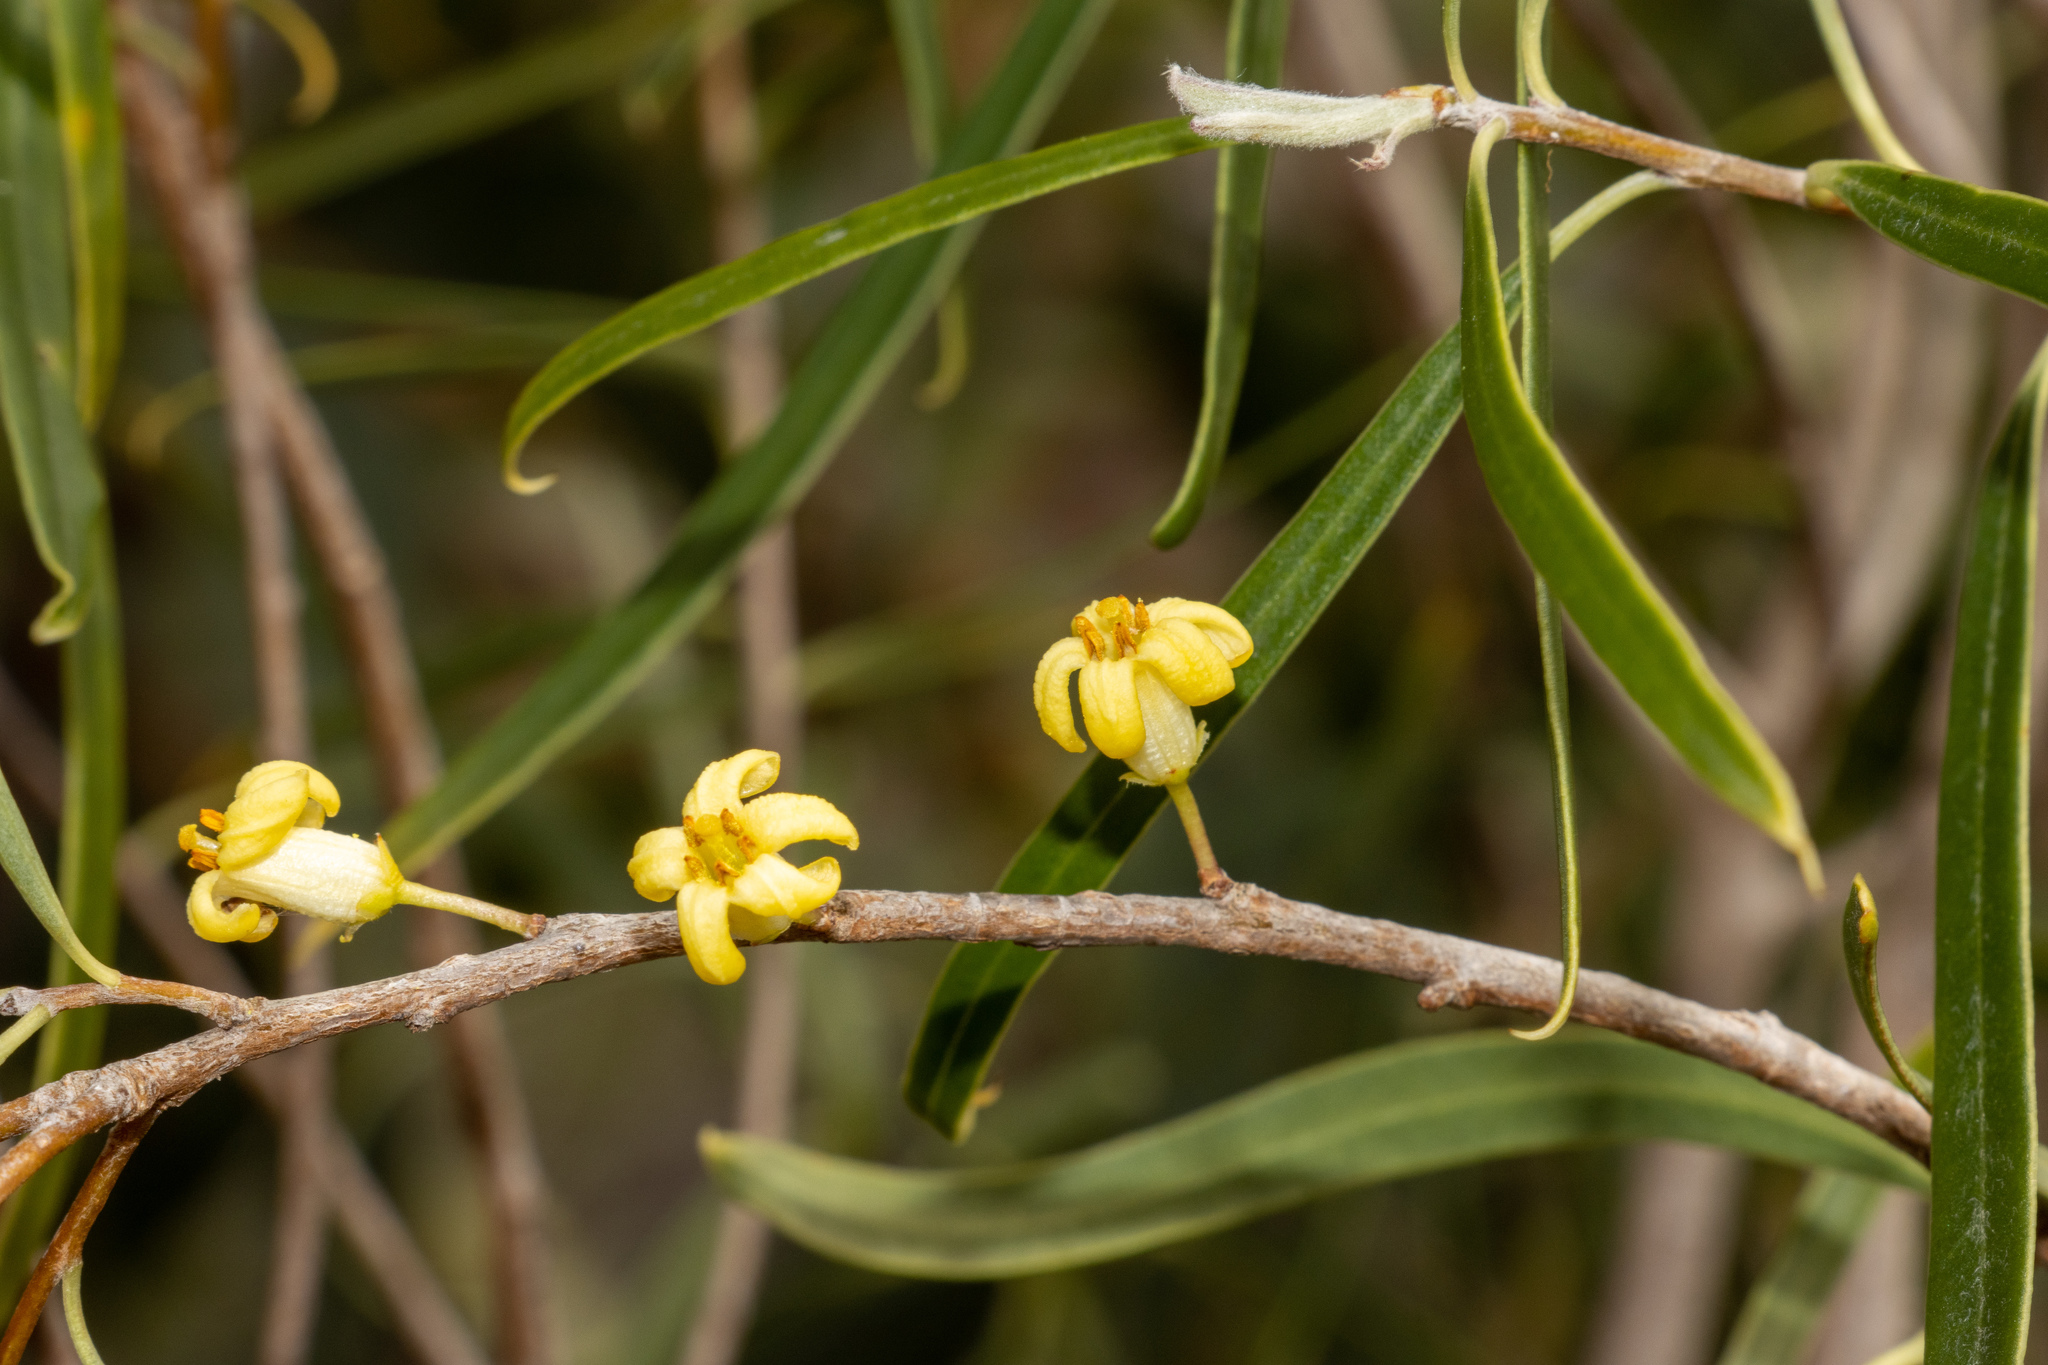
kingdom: Plantae
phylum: Tracheophyta
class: Magnoliopsida
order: Apiales
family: Pittosporaceae
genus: Pittosporum
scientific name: Pittosporum angustifolium
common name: Weeping pittosporum
